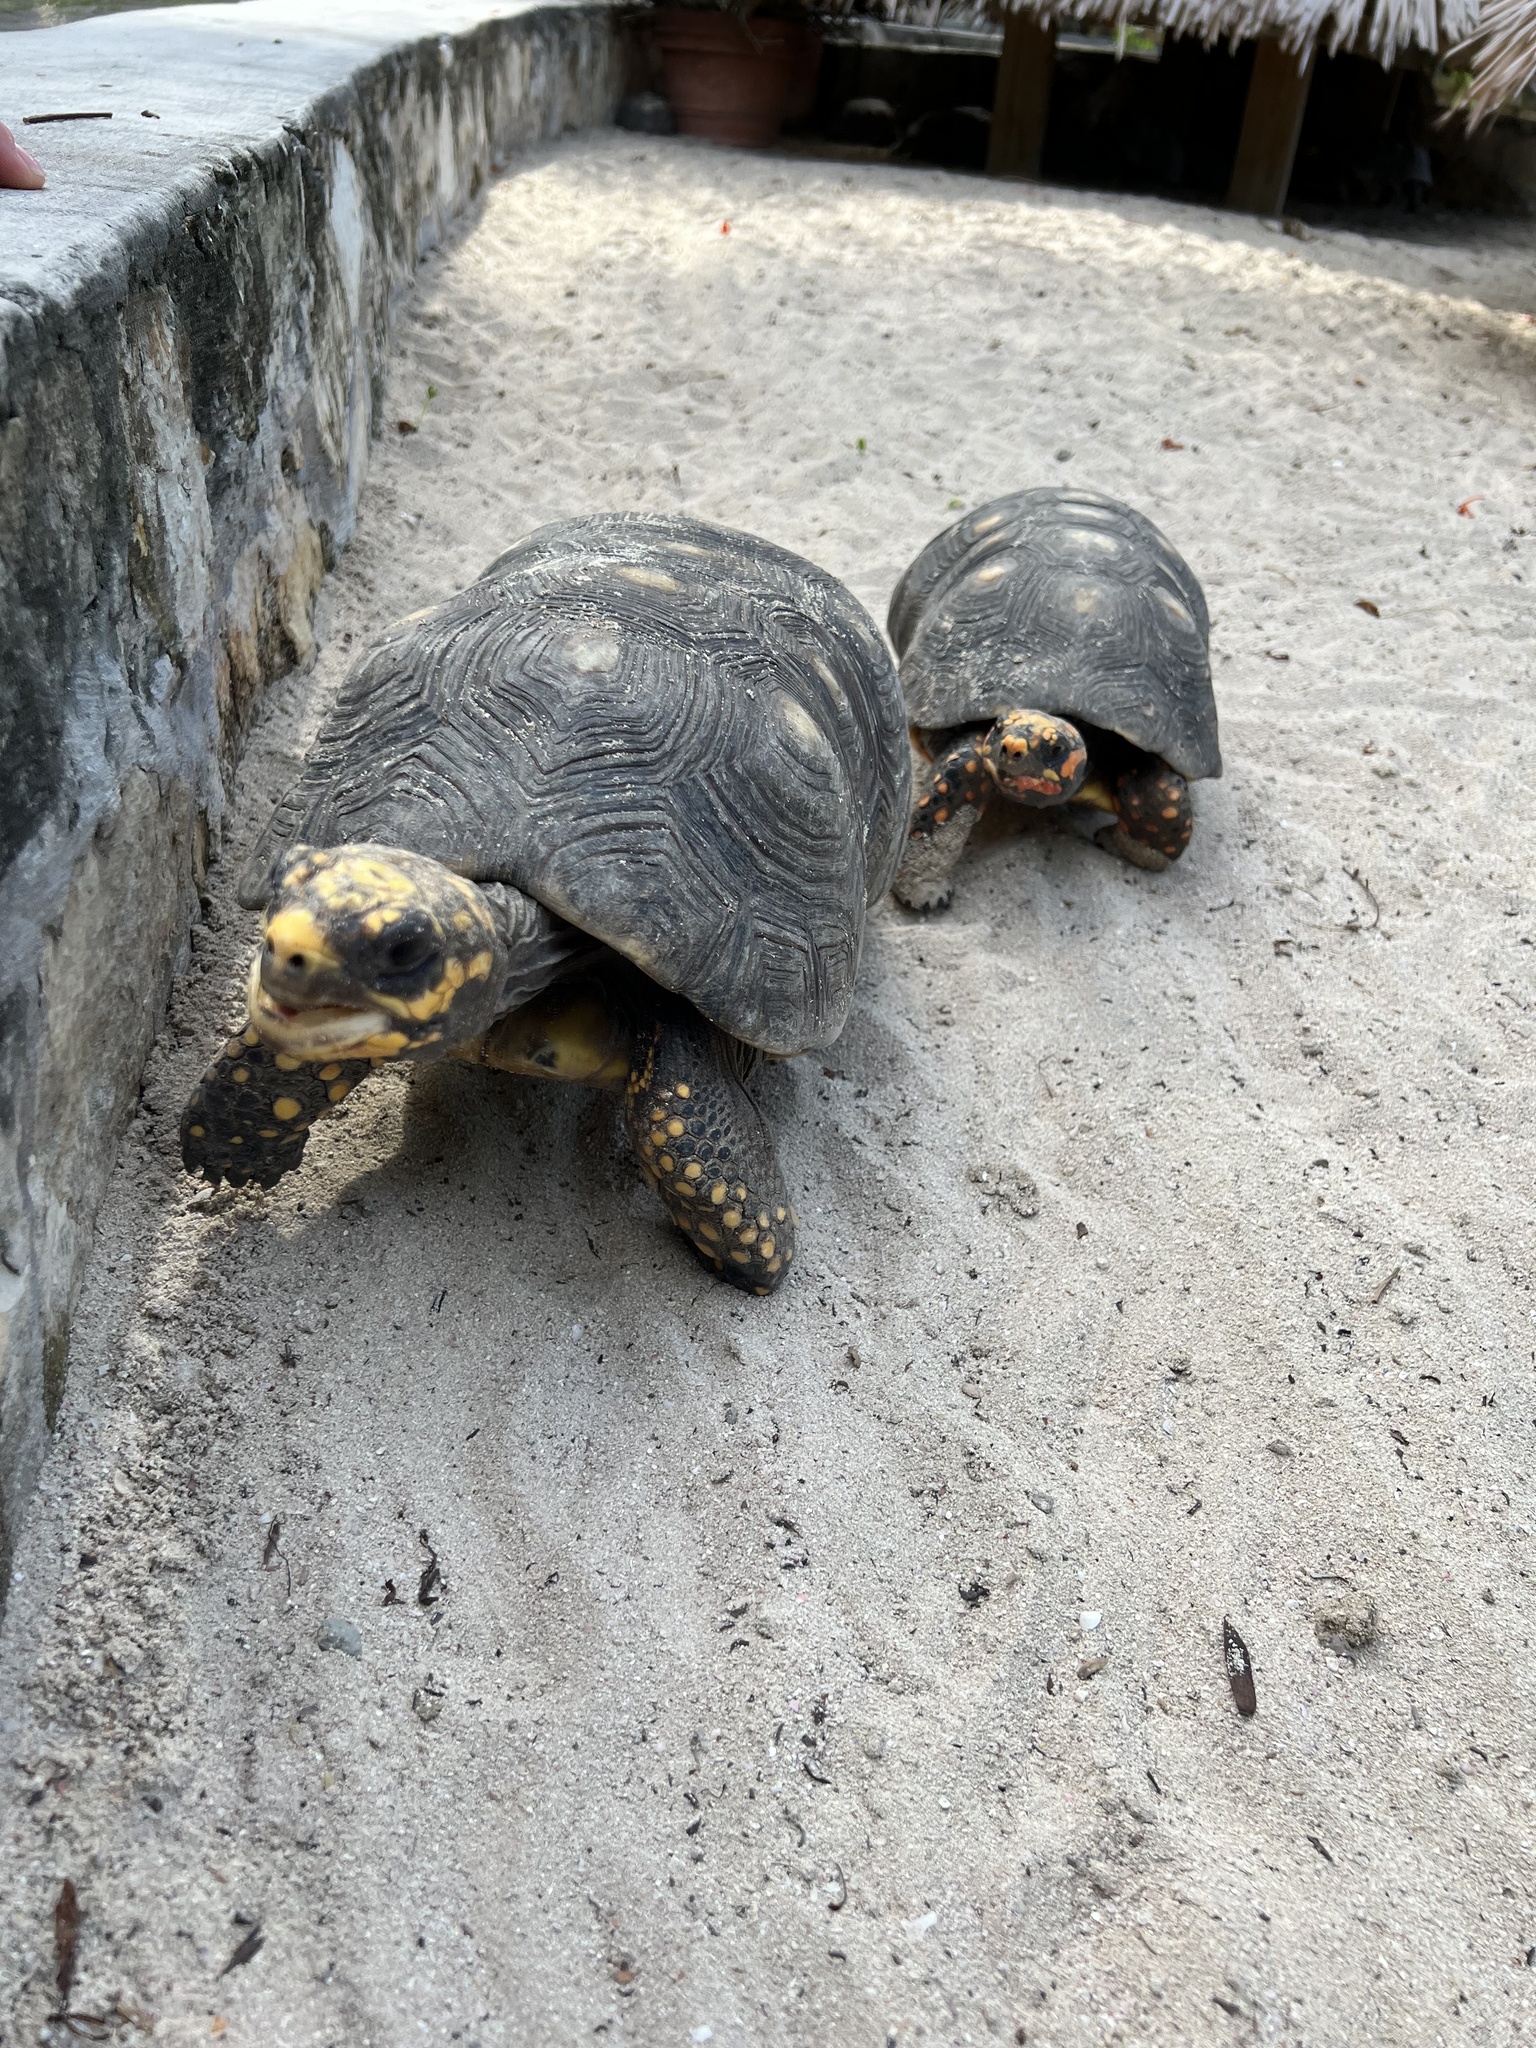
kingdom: Animalia
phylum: Chordata
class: Testudines
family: Testudinidae
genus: Chelonoidis
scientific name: Chelonoidis carbonarius
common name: Red-footed tortoise
